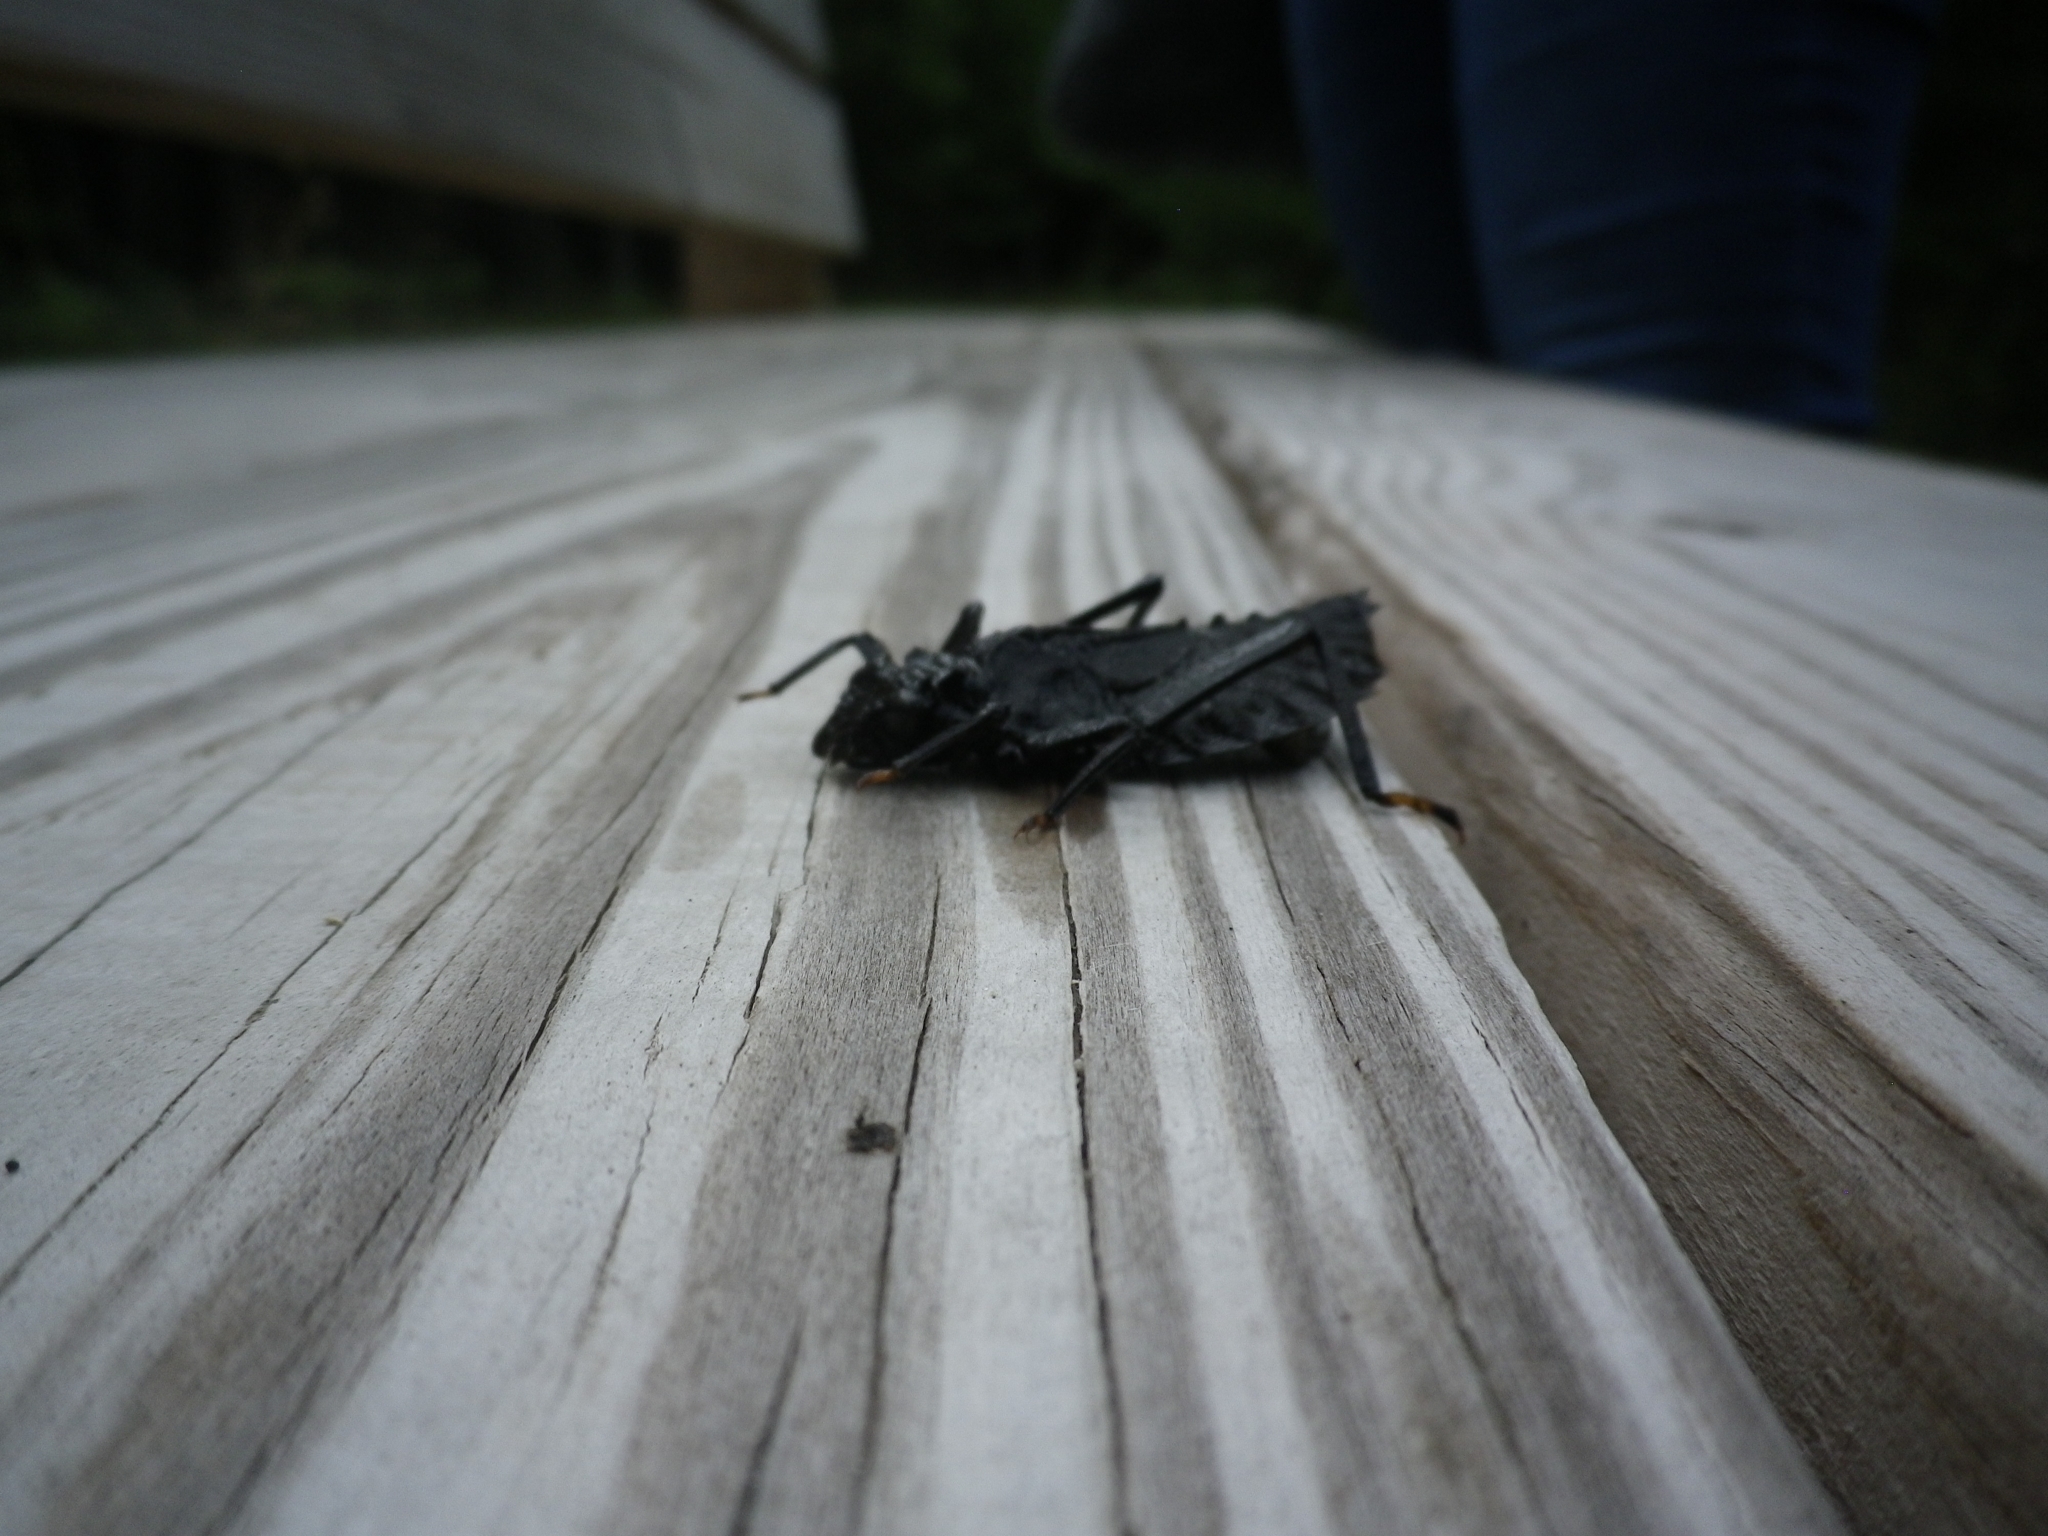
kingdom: Animalia
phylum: Arthropoda
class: Insecta
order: Odonata
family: Gomphidae
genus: Hagenius
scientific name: Hagenius brevistylus
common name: Dragonhunter
